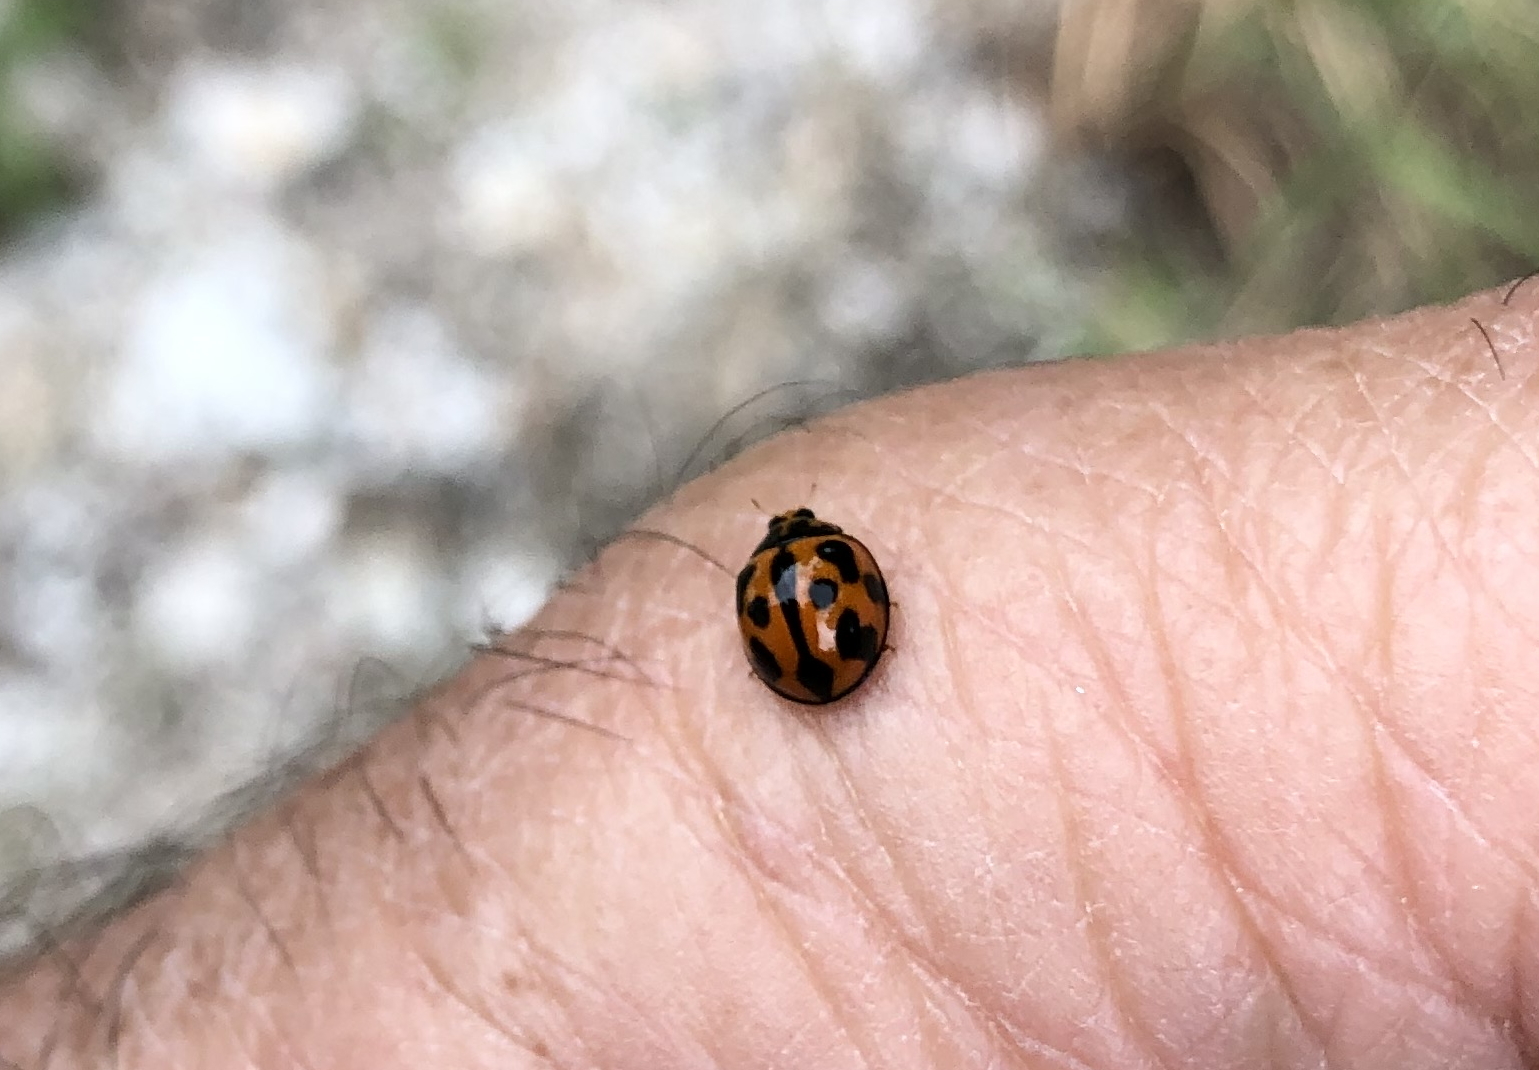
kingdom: Animalia
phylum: Arthropoda
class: Insecta
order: Coleoptera
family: Coccinellidae
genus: Coelophora
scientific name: Coelophora inaequalis
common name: Common australian lady beetle
